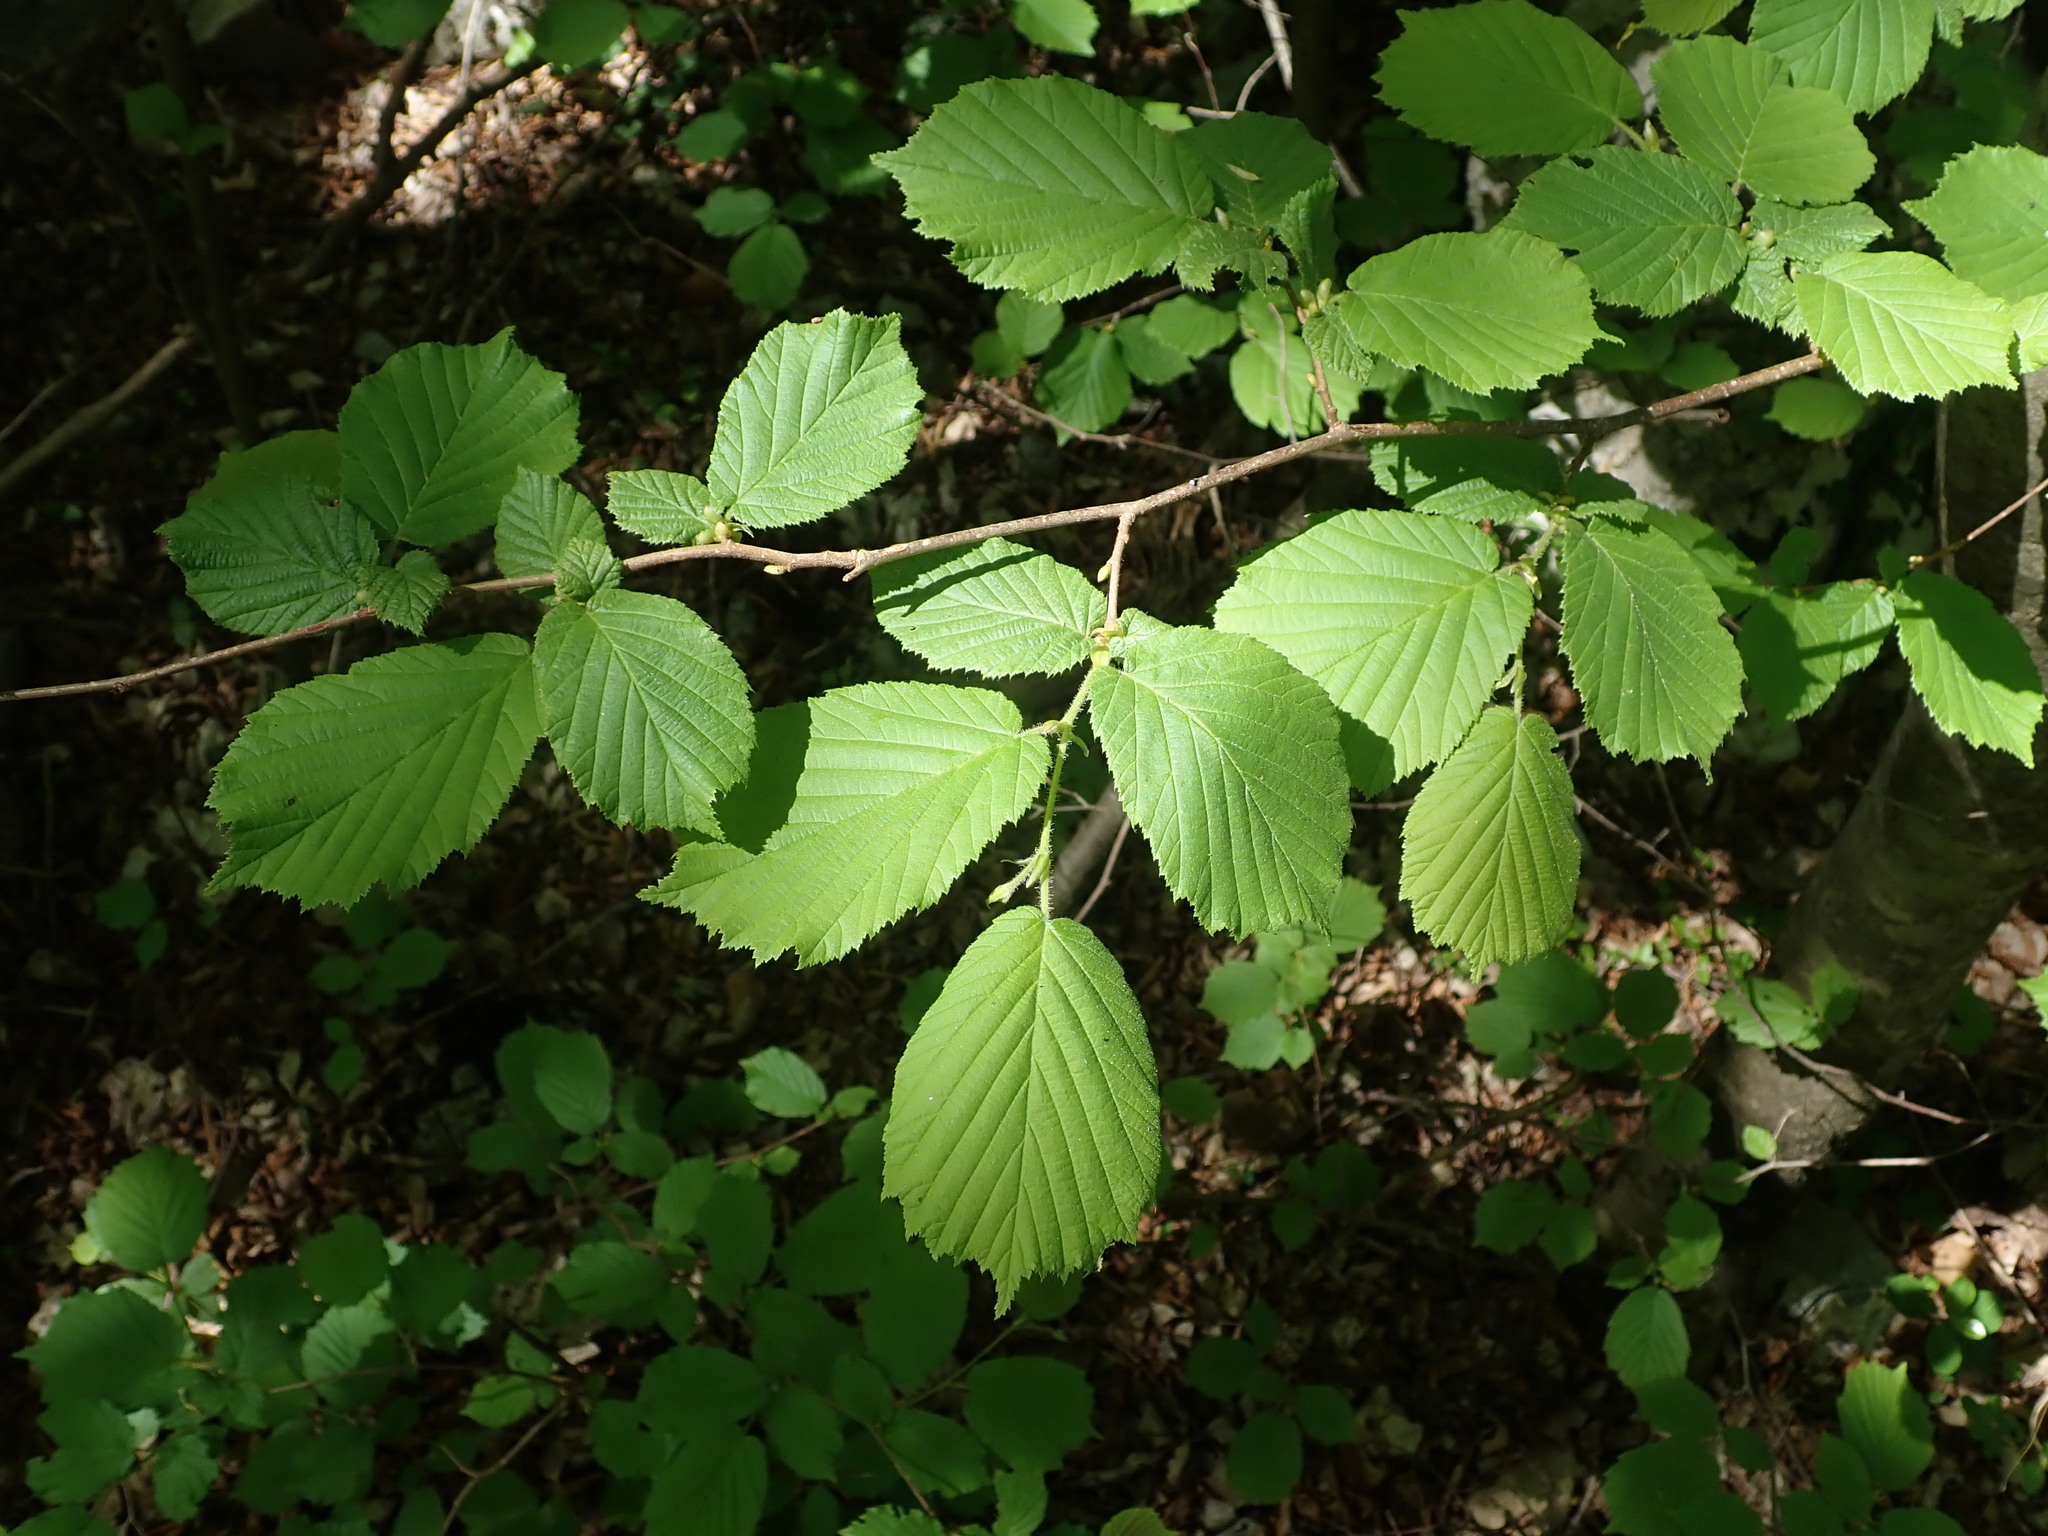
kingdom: Plantae
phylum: Tracheophyta
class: Magnoliopsida
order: Fagales
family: Betulaceae
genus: Corylus
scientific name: Corylus avellana
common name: European hazel
